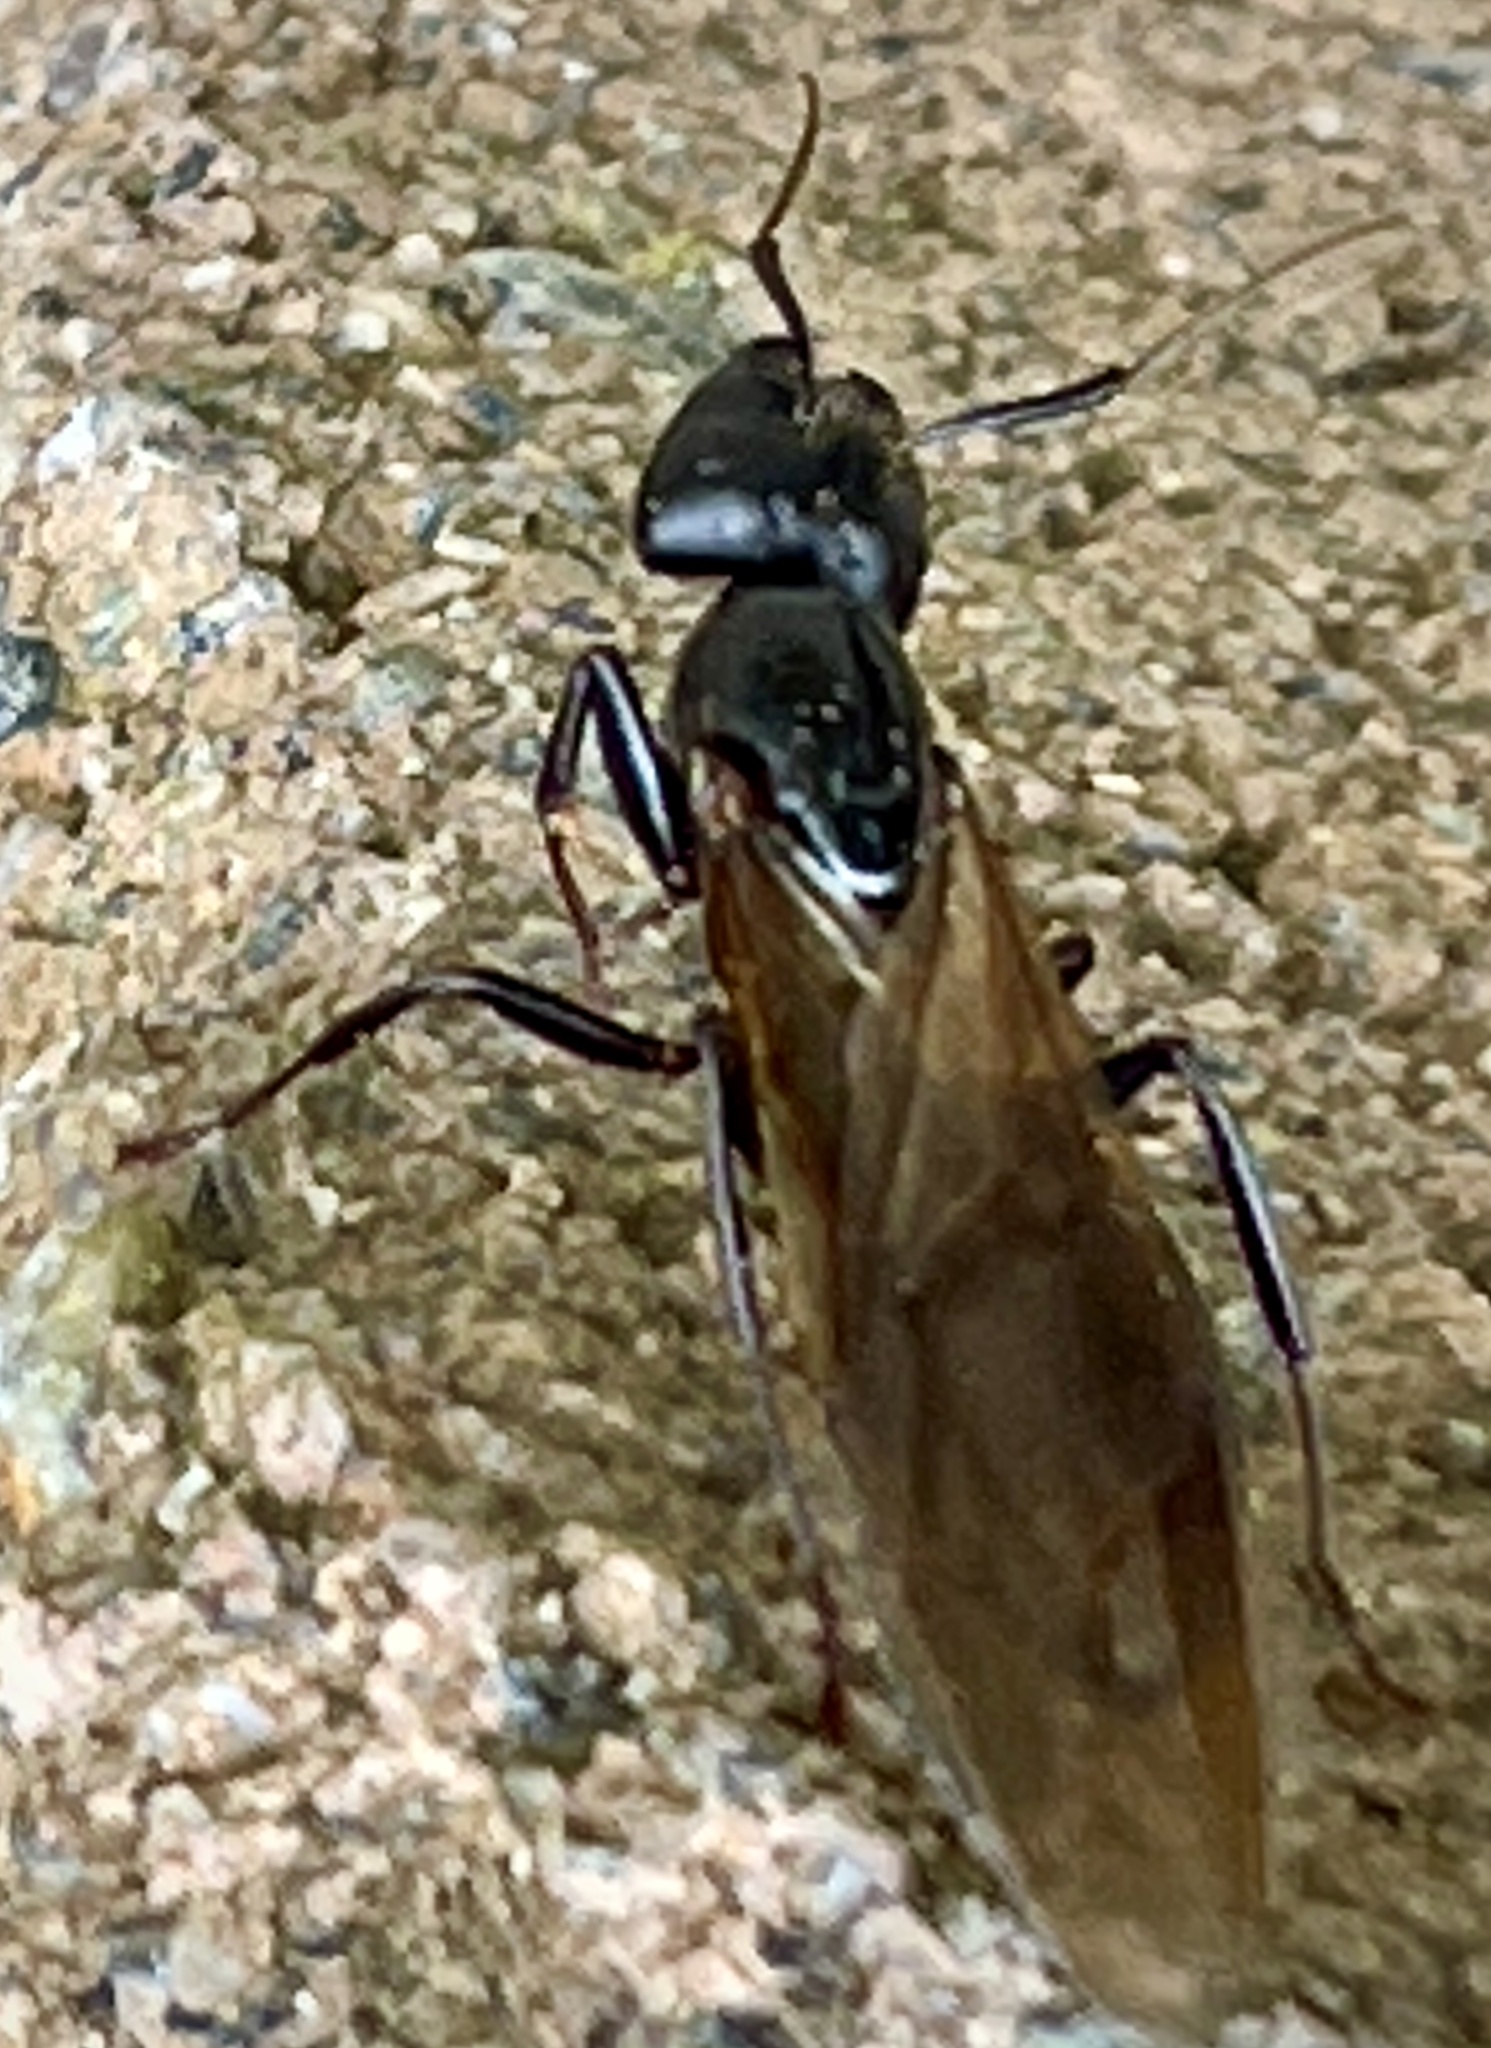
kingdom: Animalia
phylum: Arthropoda
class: Insecta
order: Hymenoptera
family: Formicidae
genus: Camponotus
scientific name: Camponotus pennsylvanicus
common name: Black carpenter ant
